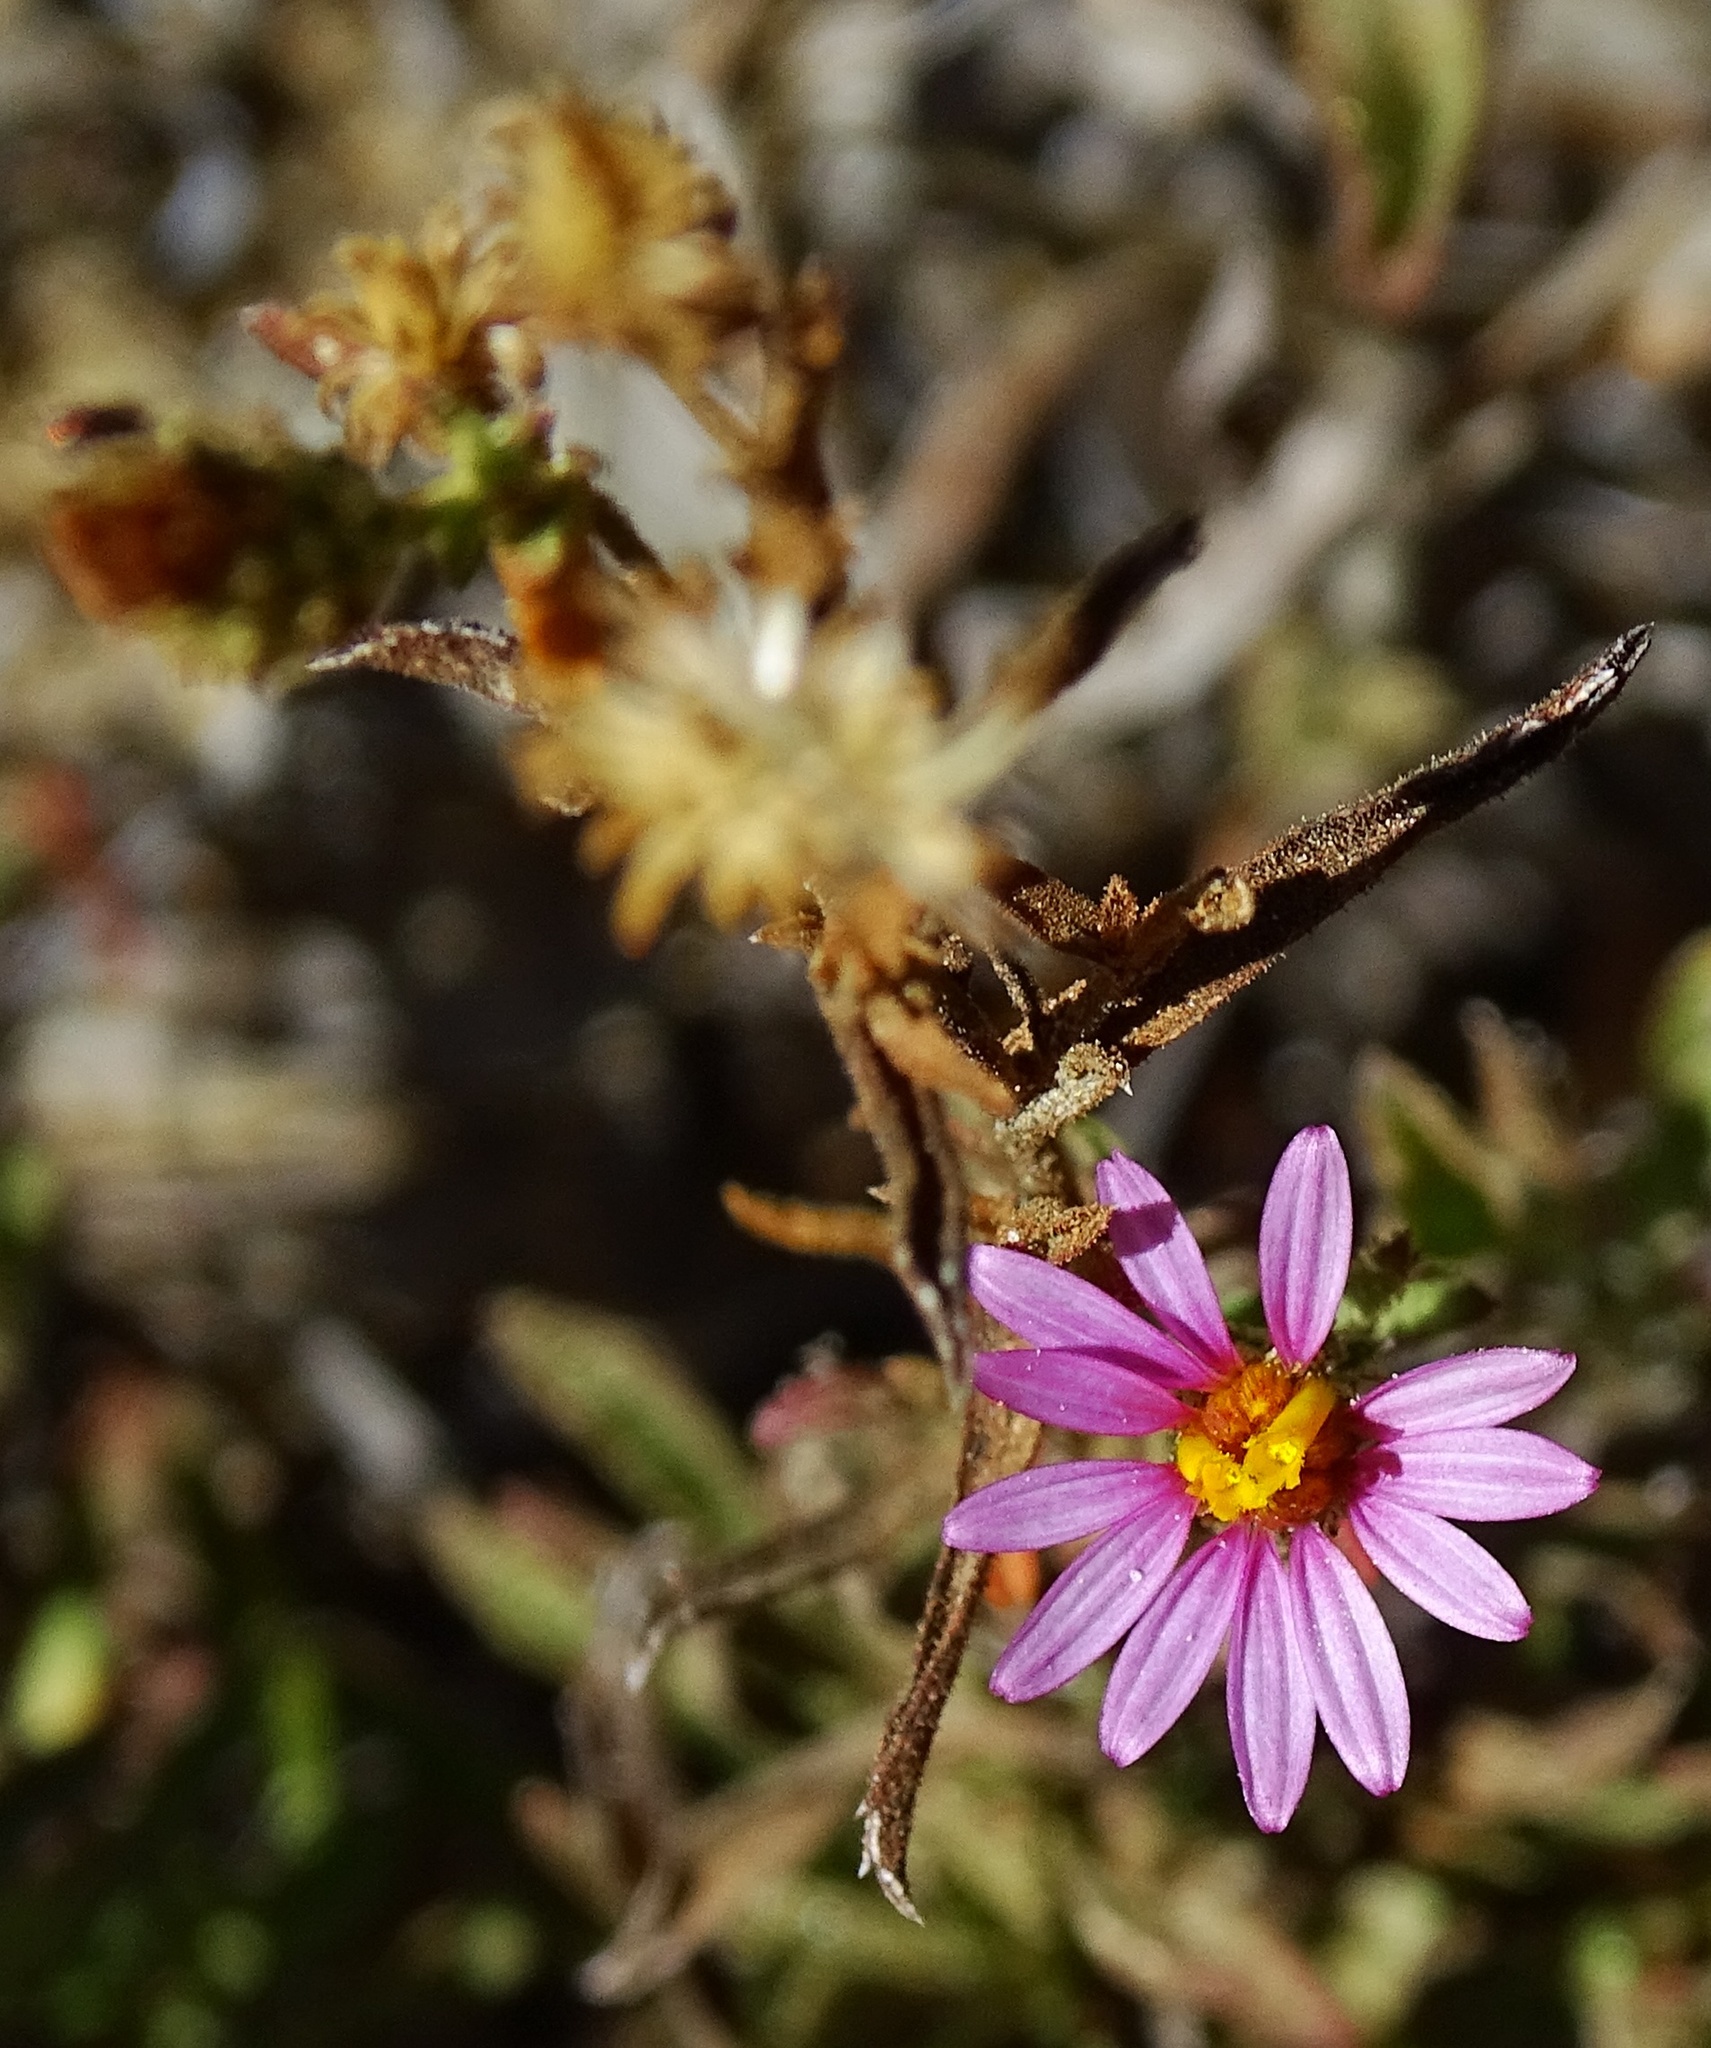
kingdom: Plantae
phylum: Tracheophyta
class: Magnoliopsida
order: Asterales
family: Asteraceae
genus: Corethrogyne
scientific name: Corethrogyne filaginifolia
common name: Sand-aster
